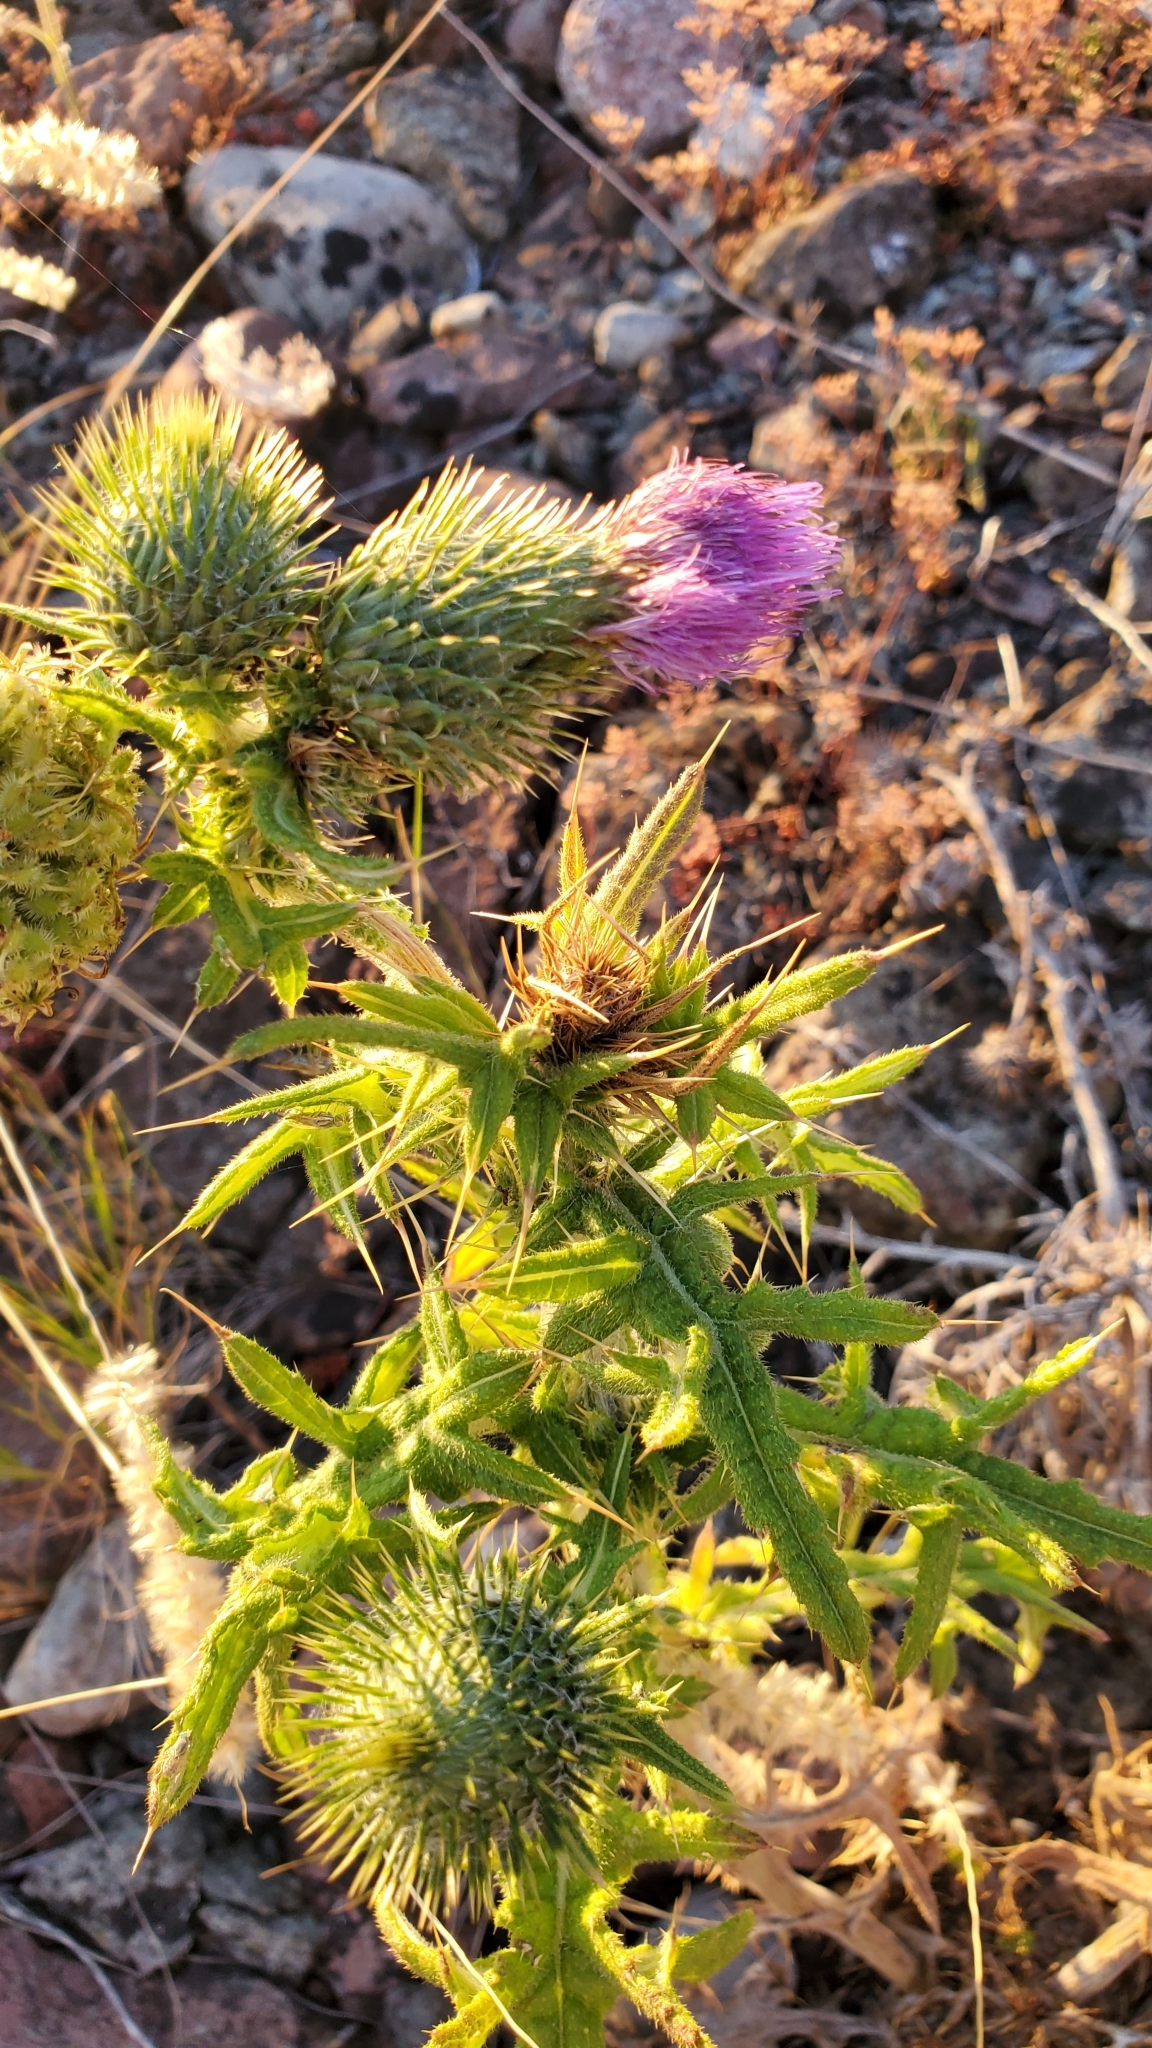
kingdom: Plantae
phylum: Tracheophyta
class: Magnoliopsida
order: Asterales
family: Asteraceae
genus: Cirsium
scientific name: Cirsium vulgare
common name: Bull thistle
